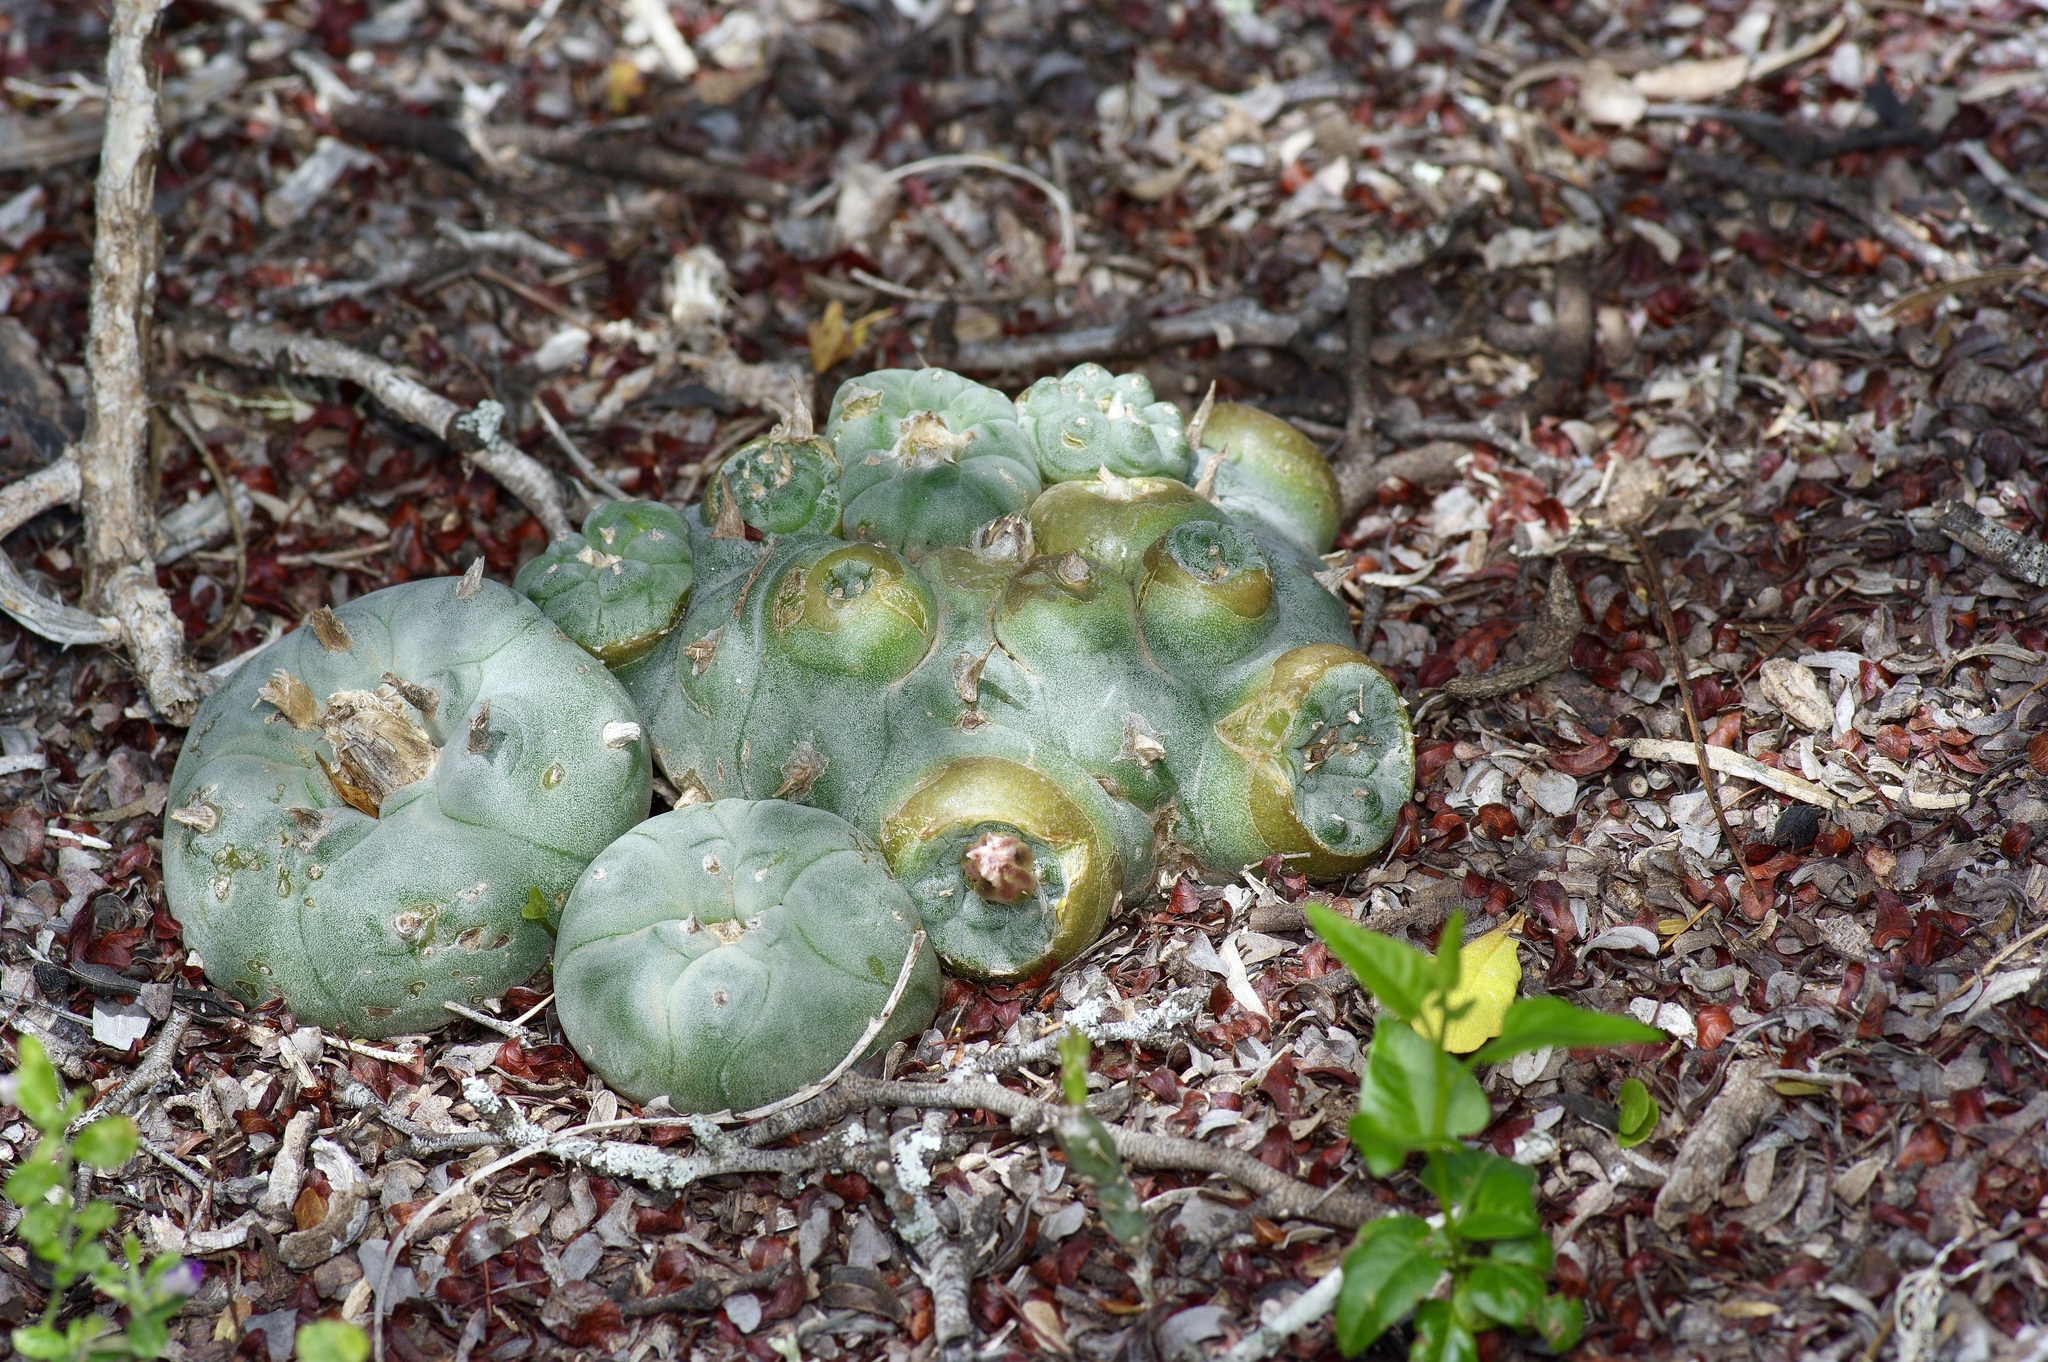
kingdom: Plantae
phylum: Tracheophyta
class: Magnoliopsida
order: Caryophyllales
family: Cactaceae
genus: Lophophora
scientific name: Lophophora williamsii
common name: Indian-dope
